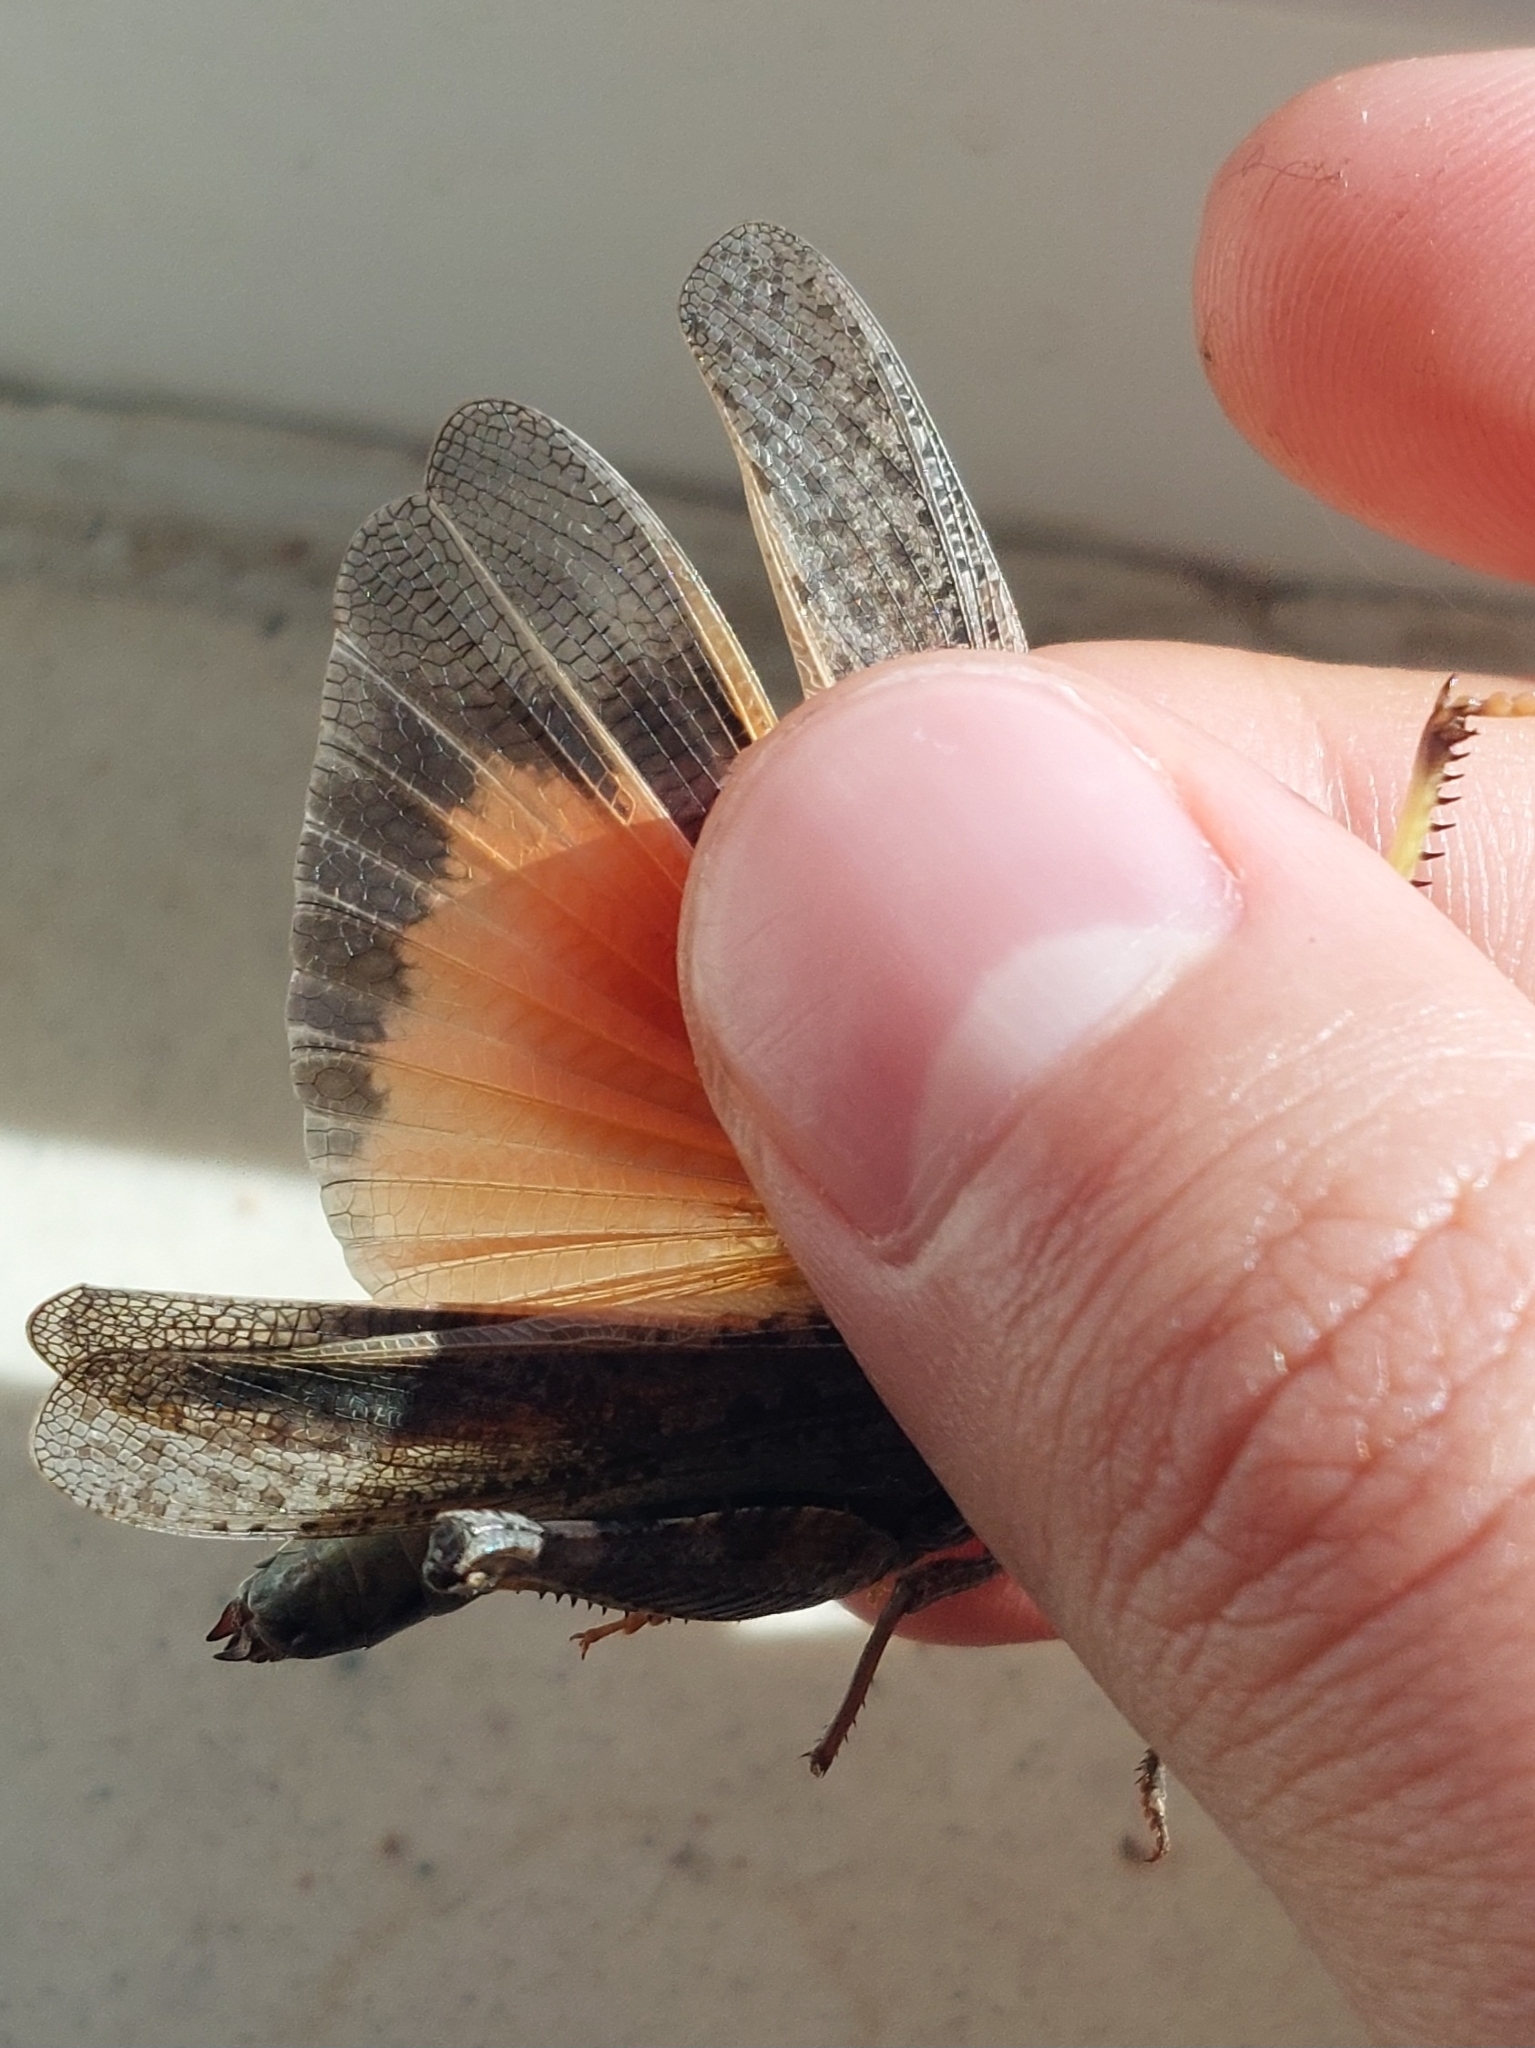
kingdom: Animalia
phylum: Arthropoda
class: Insecta
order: Orthoptera
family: Acrididae
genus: Arphia
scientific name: Arphia conspersa
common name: Speckle-winged rangeland grasshopper
